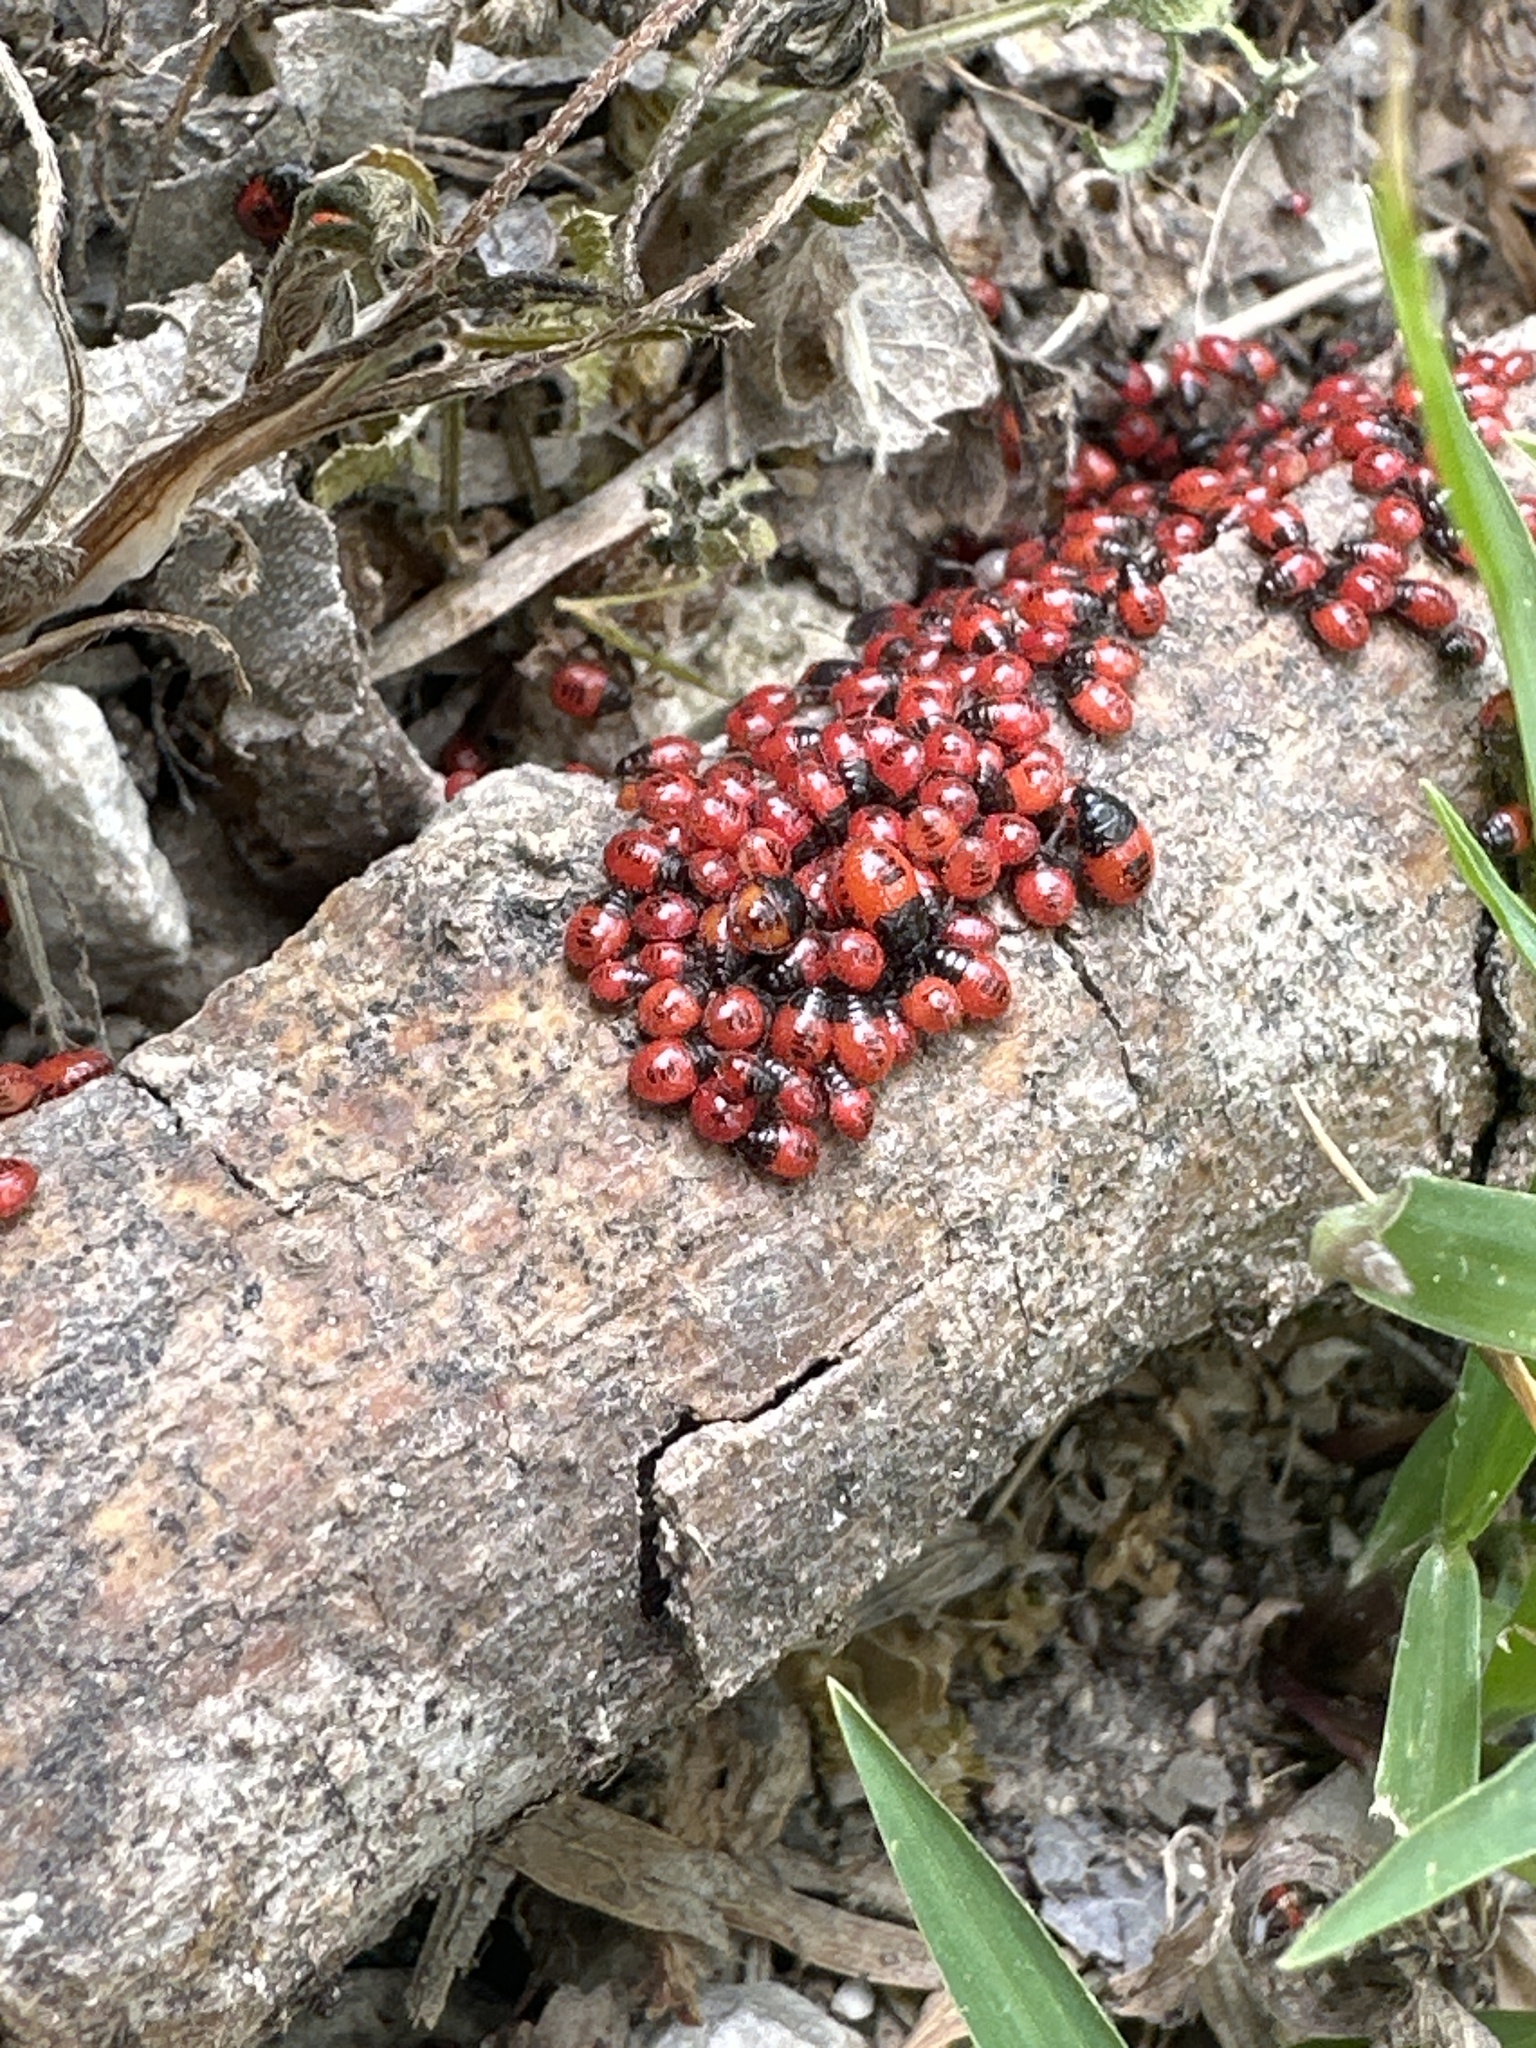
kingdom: Animalia
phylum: Arthropoda
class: Insecta
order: Hemiptera
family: Cydnidae
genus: Sehirus
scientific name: Sehirus cinctus
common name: White-margined burrower bug
